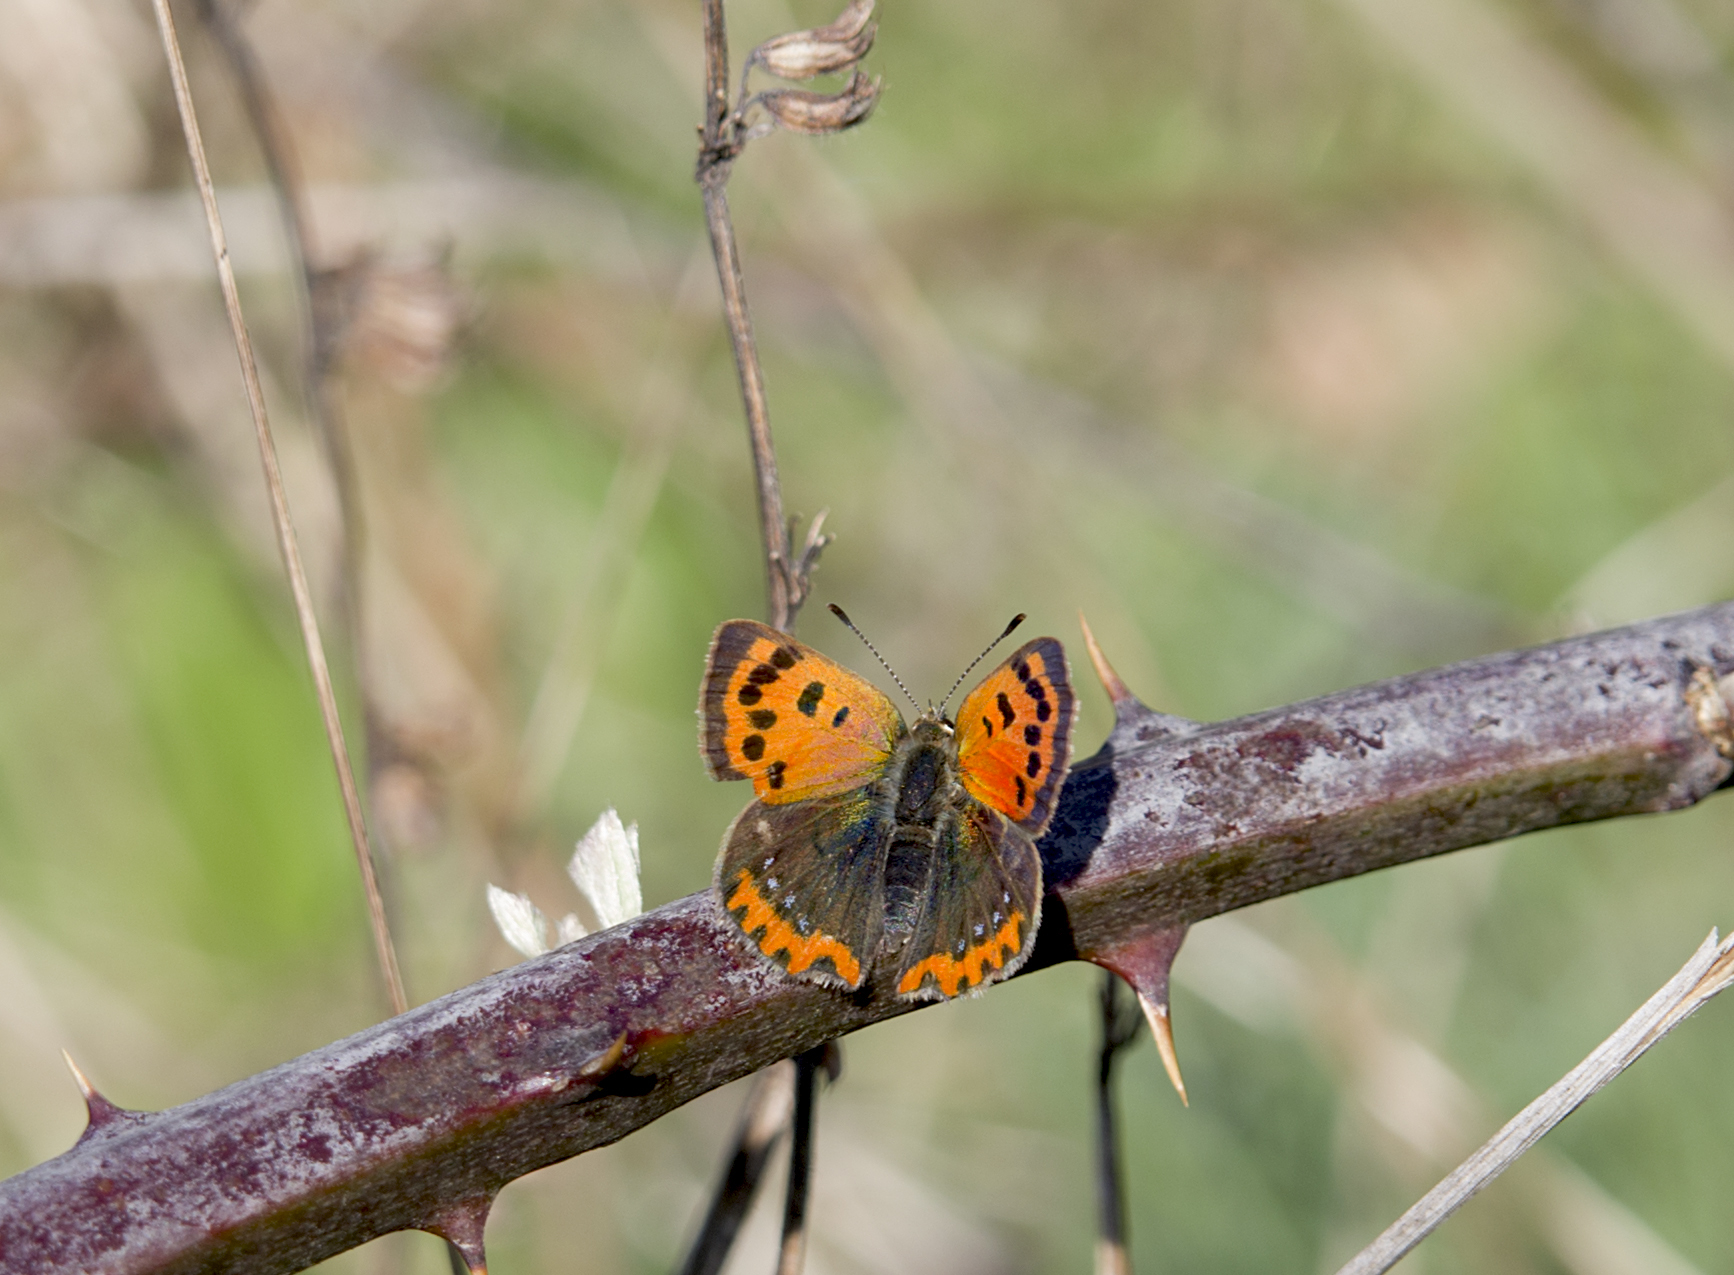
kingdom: Animalia
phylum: Arthropoda
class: Insecta
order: Lepidoptera
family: Lycaenidae
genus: Lycaena
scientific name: Lycaena phlaeas
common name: Small copper
